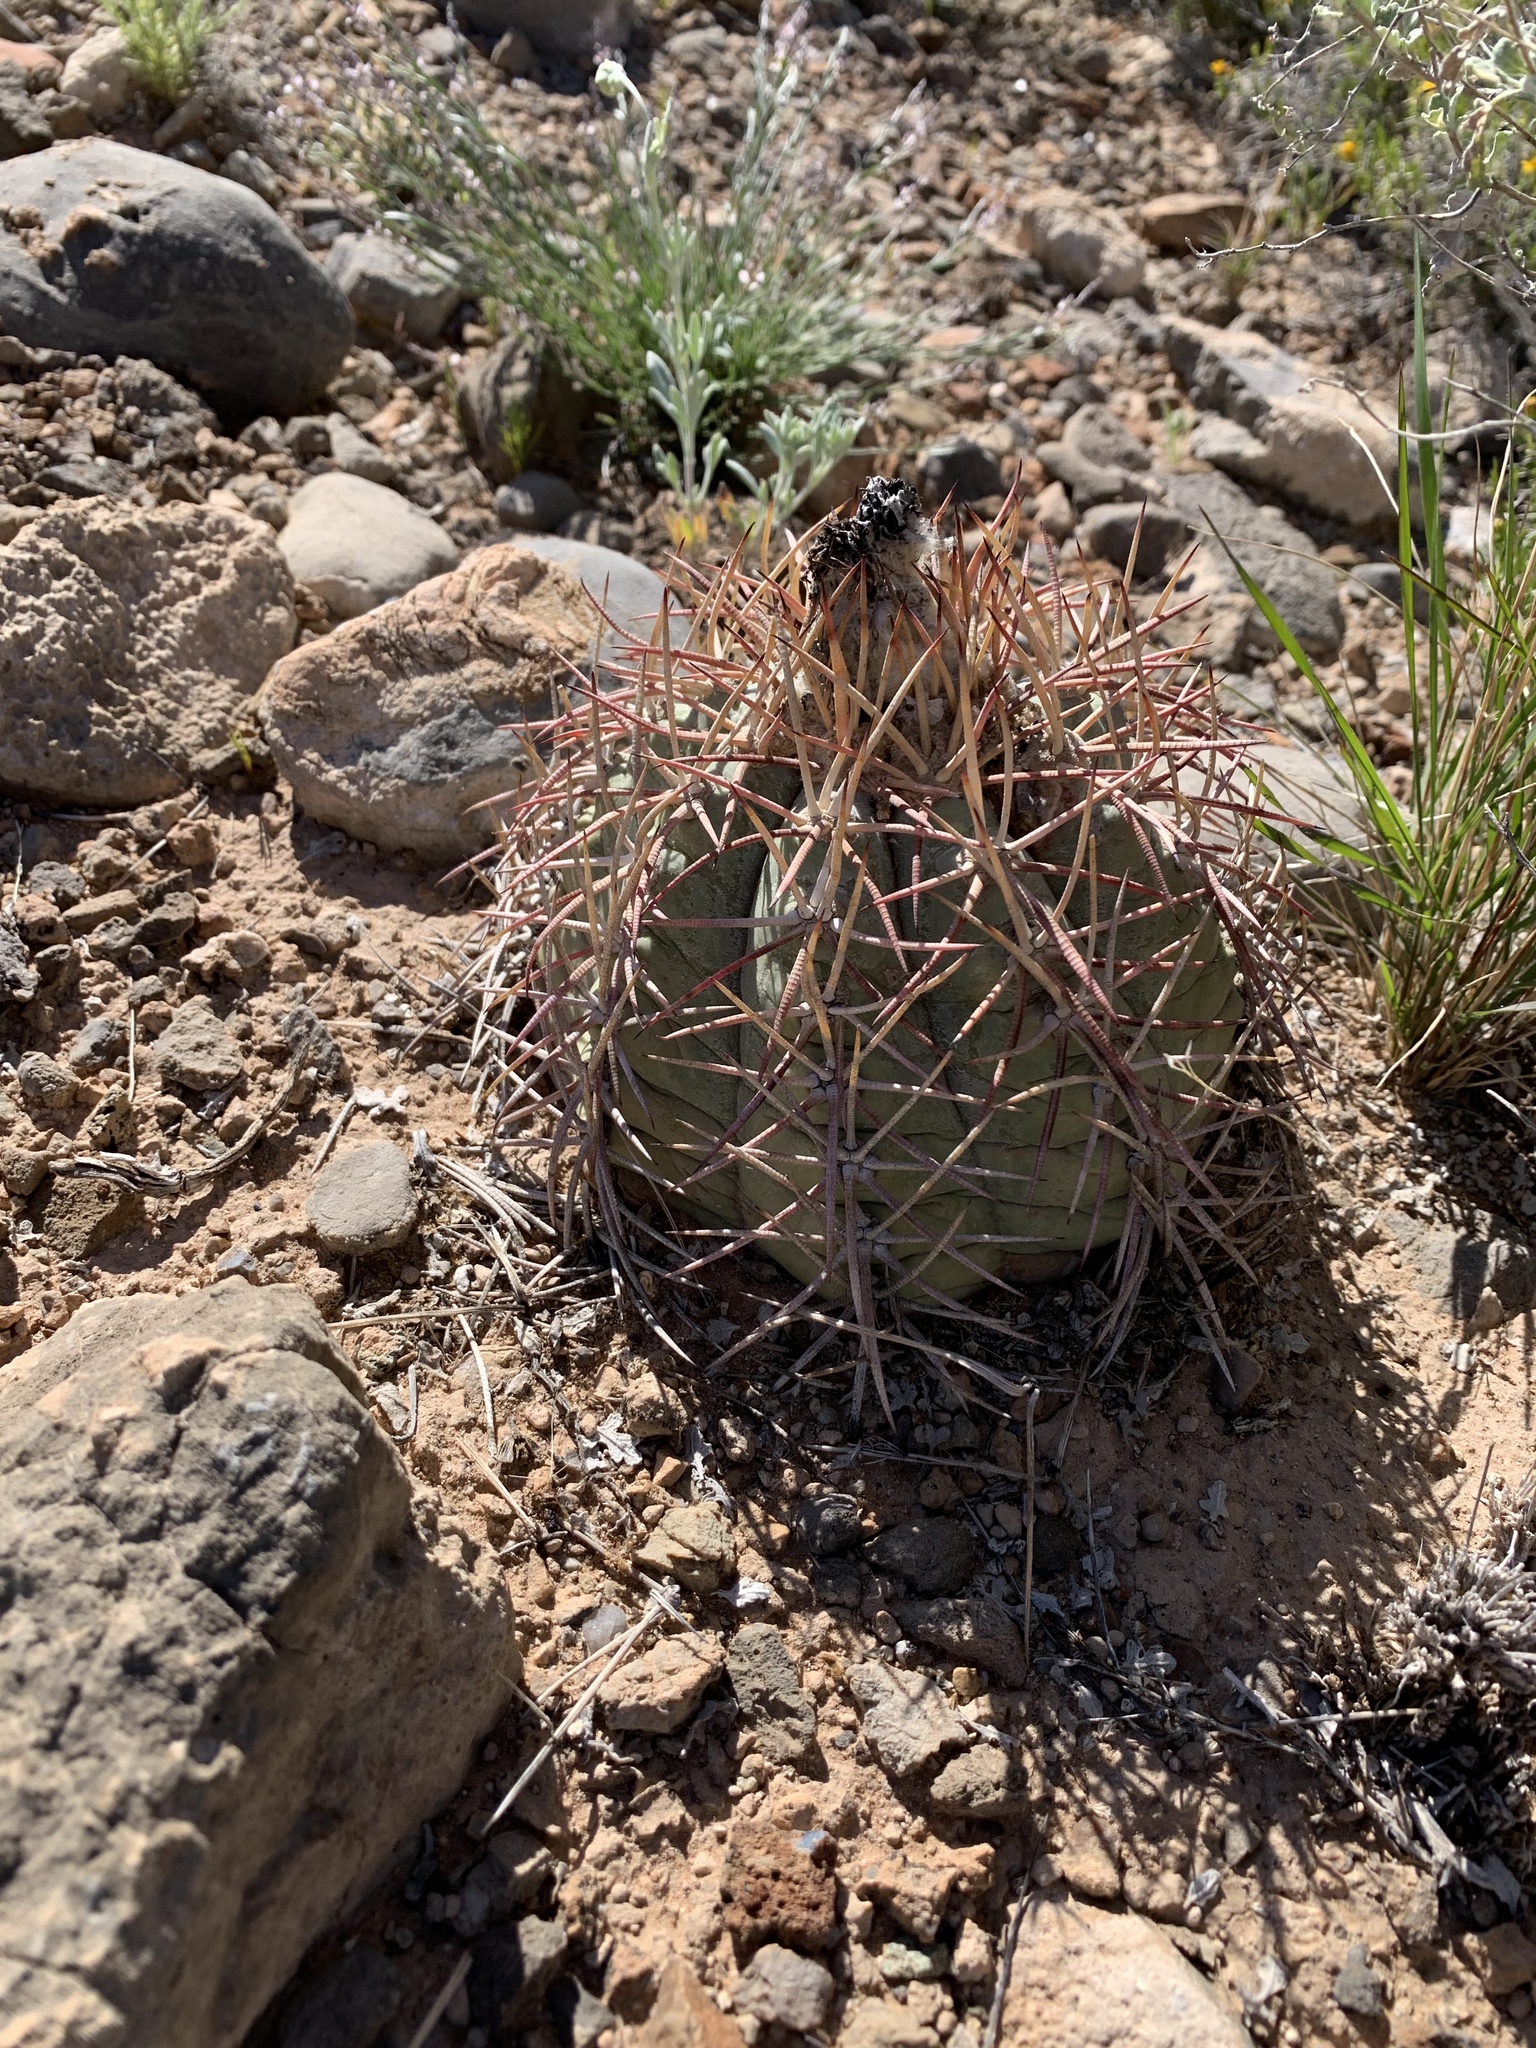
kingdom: Plantae
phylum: Tracheophyta
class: Magnoliopsida
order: Caryophyllales
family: Cactaceae
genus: Echinocactus
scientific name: Echinocactus horizonthalonius
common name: Devilshead
